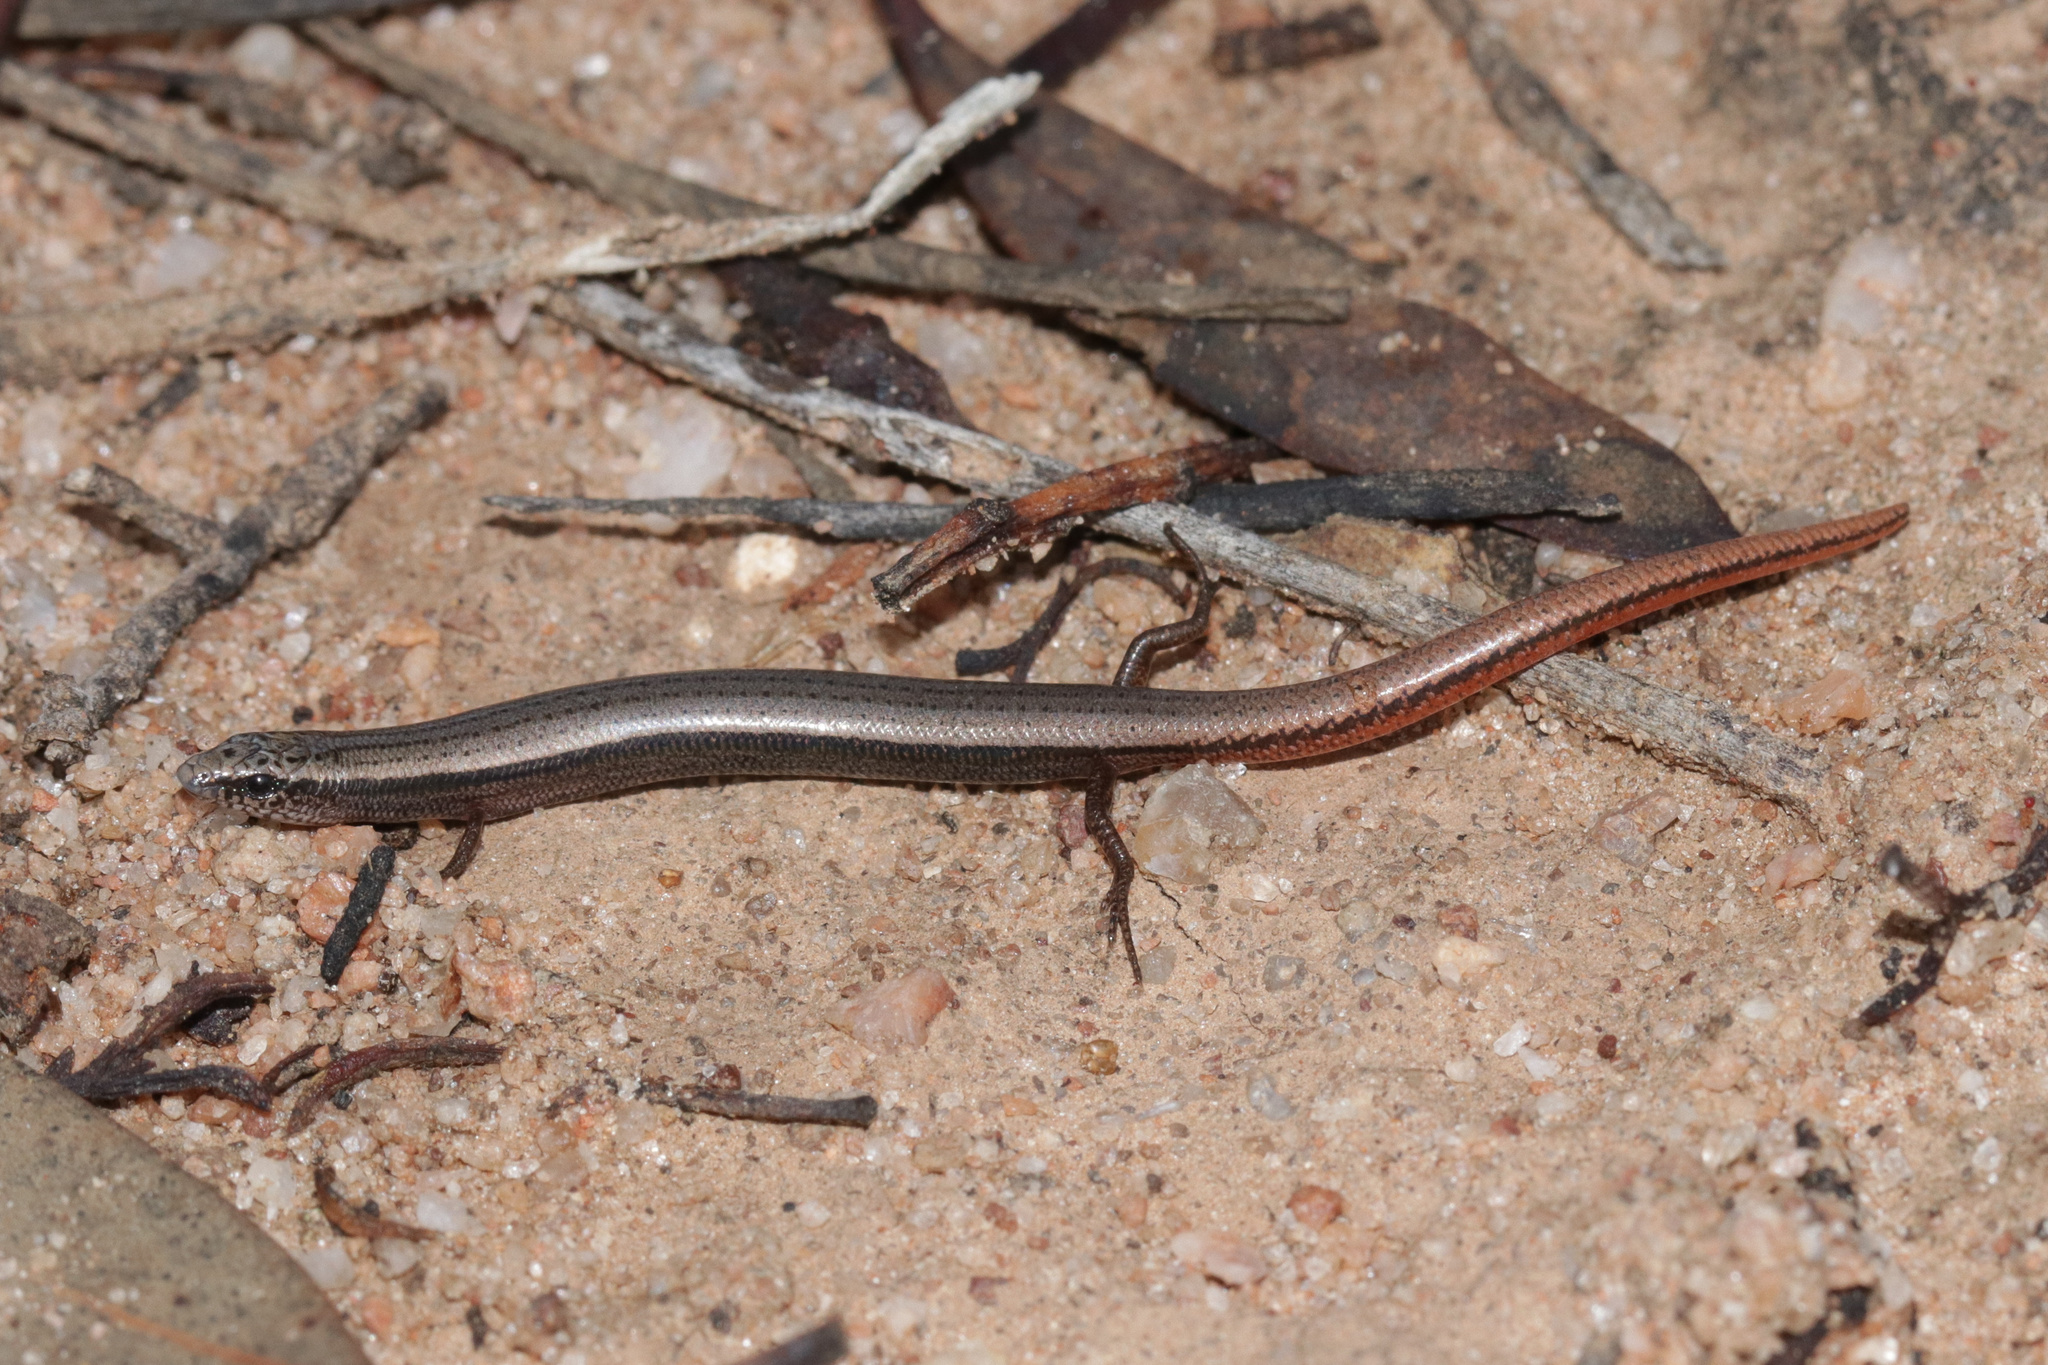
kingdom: Animalia
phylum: Chordata
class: Squamata
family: Scincidae
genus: Lerista
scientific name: Lerista kingi
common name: King's three-toed slider
